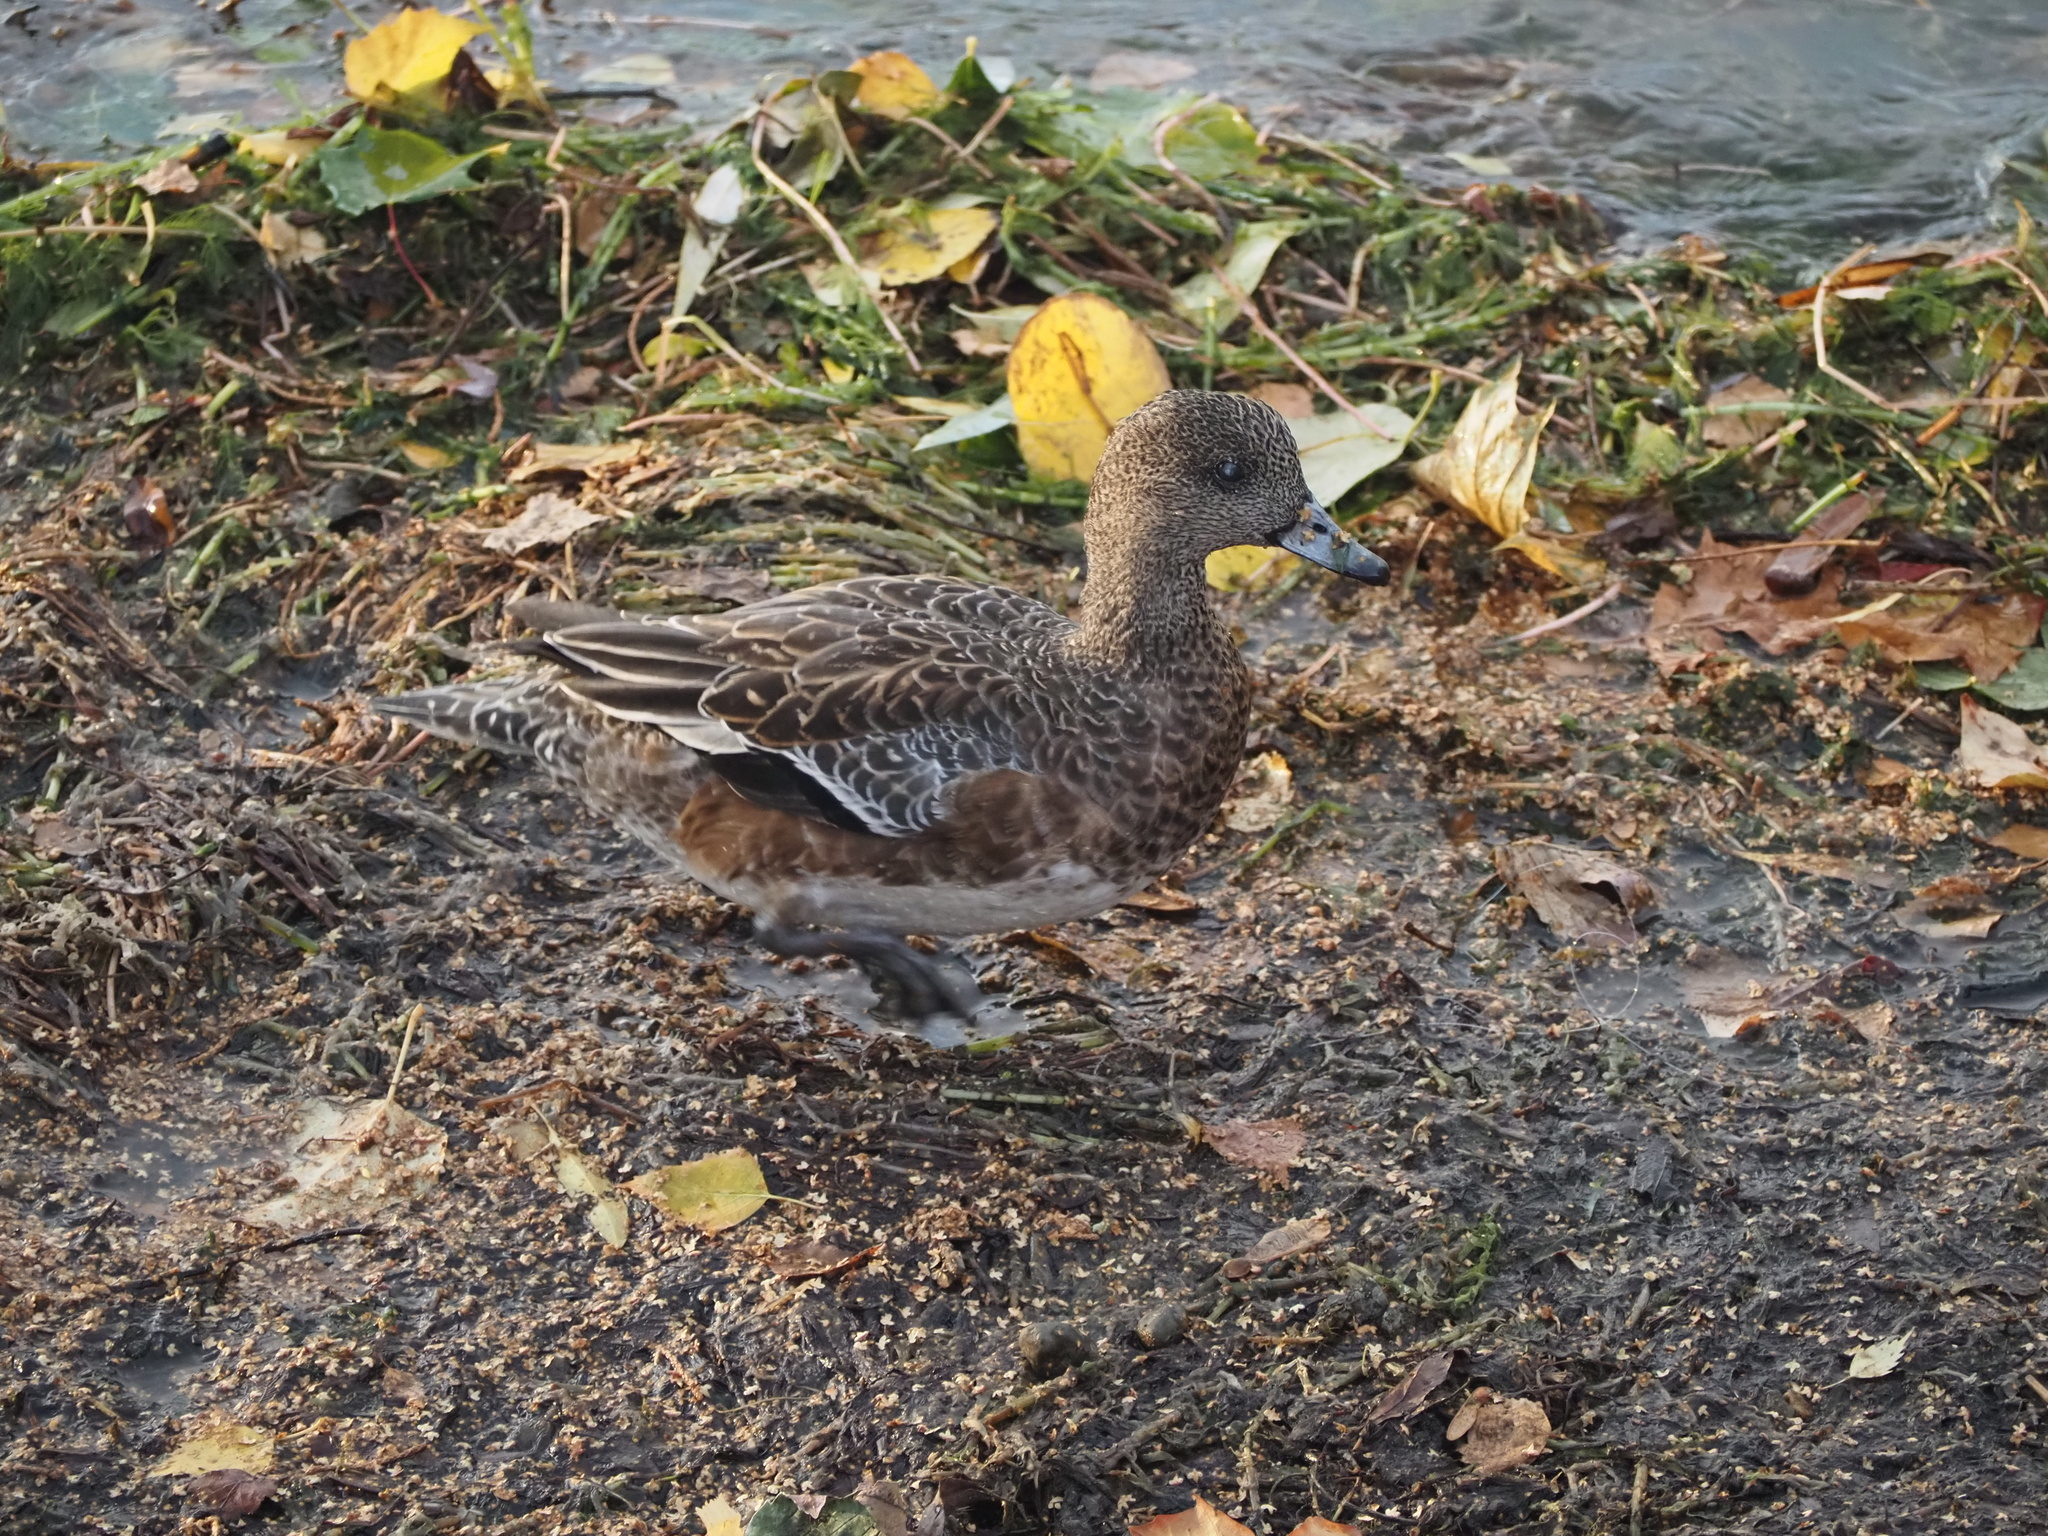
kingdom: Animalia
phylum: Chordata
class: Aves
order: Anseriformes
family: Anatidae
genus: Mareca
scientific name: Mareca americana
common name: American wigeon
